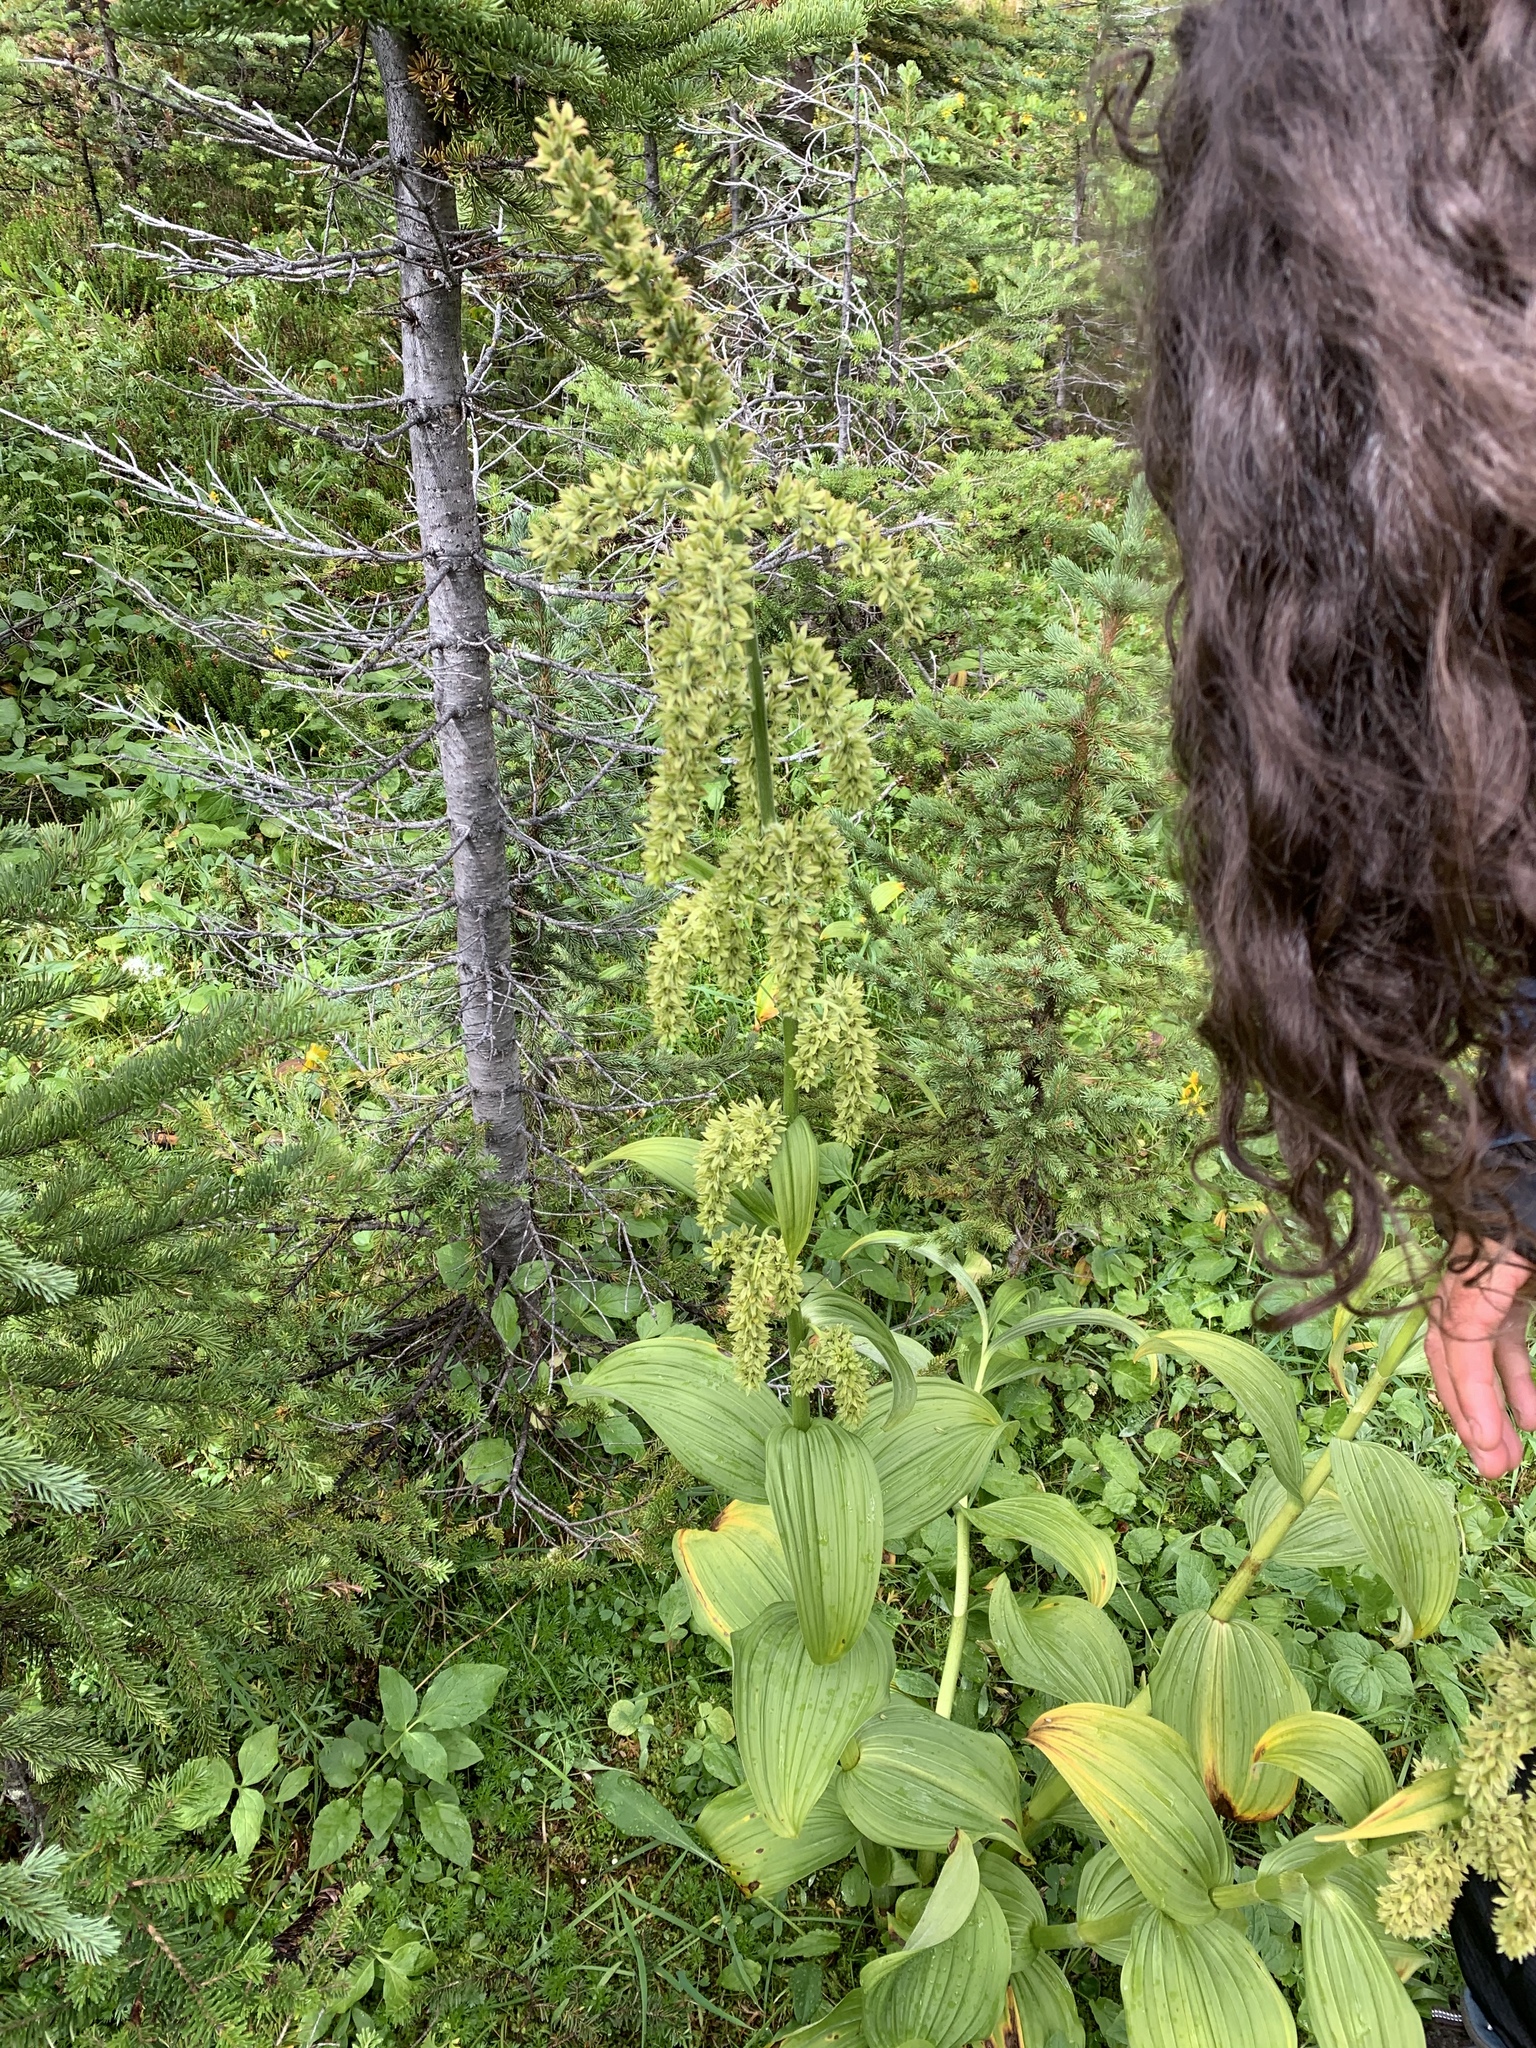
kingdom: Plantae
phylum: Tracheophyta
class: Liliopsida
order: Liliales
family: Melanthiaceae
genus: Veratrum
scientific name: Veratrum viride
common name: American false hellebore
